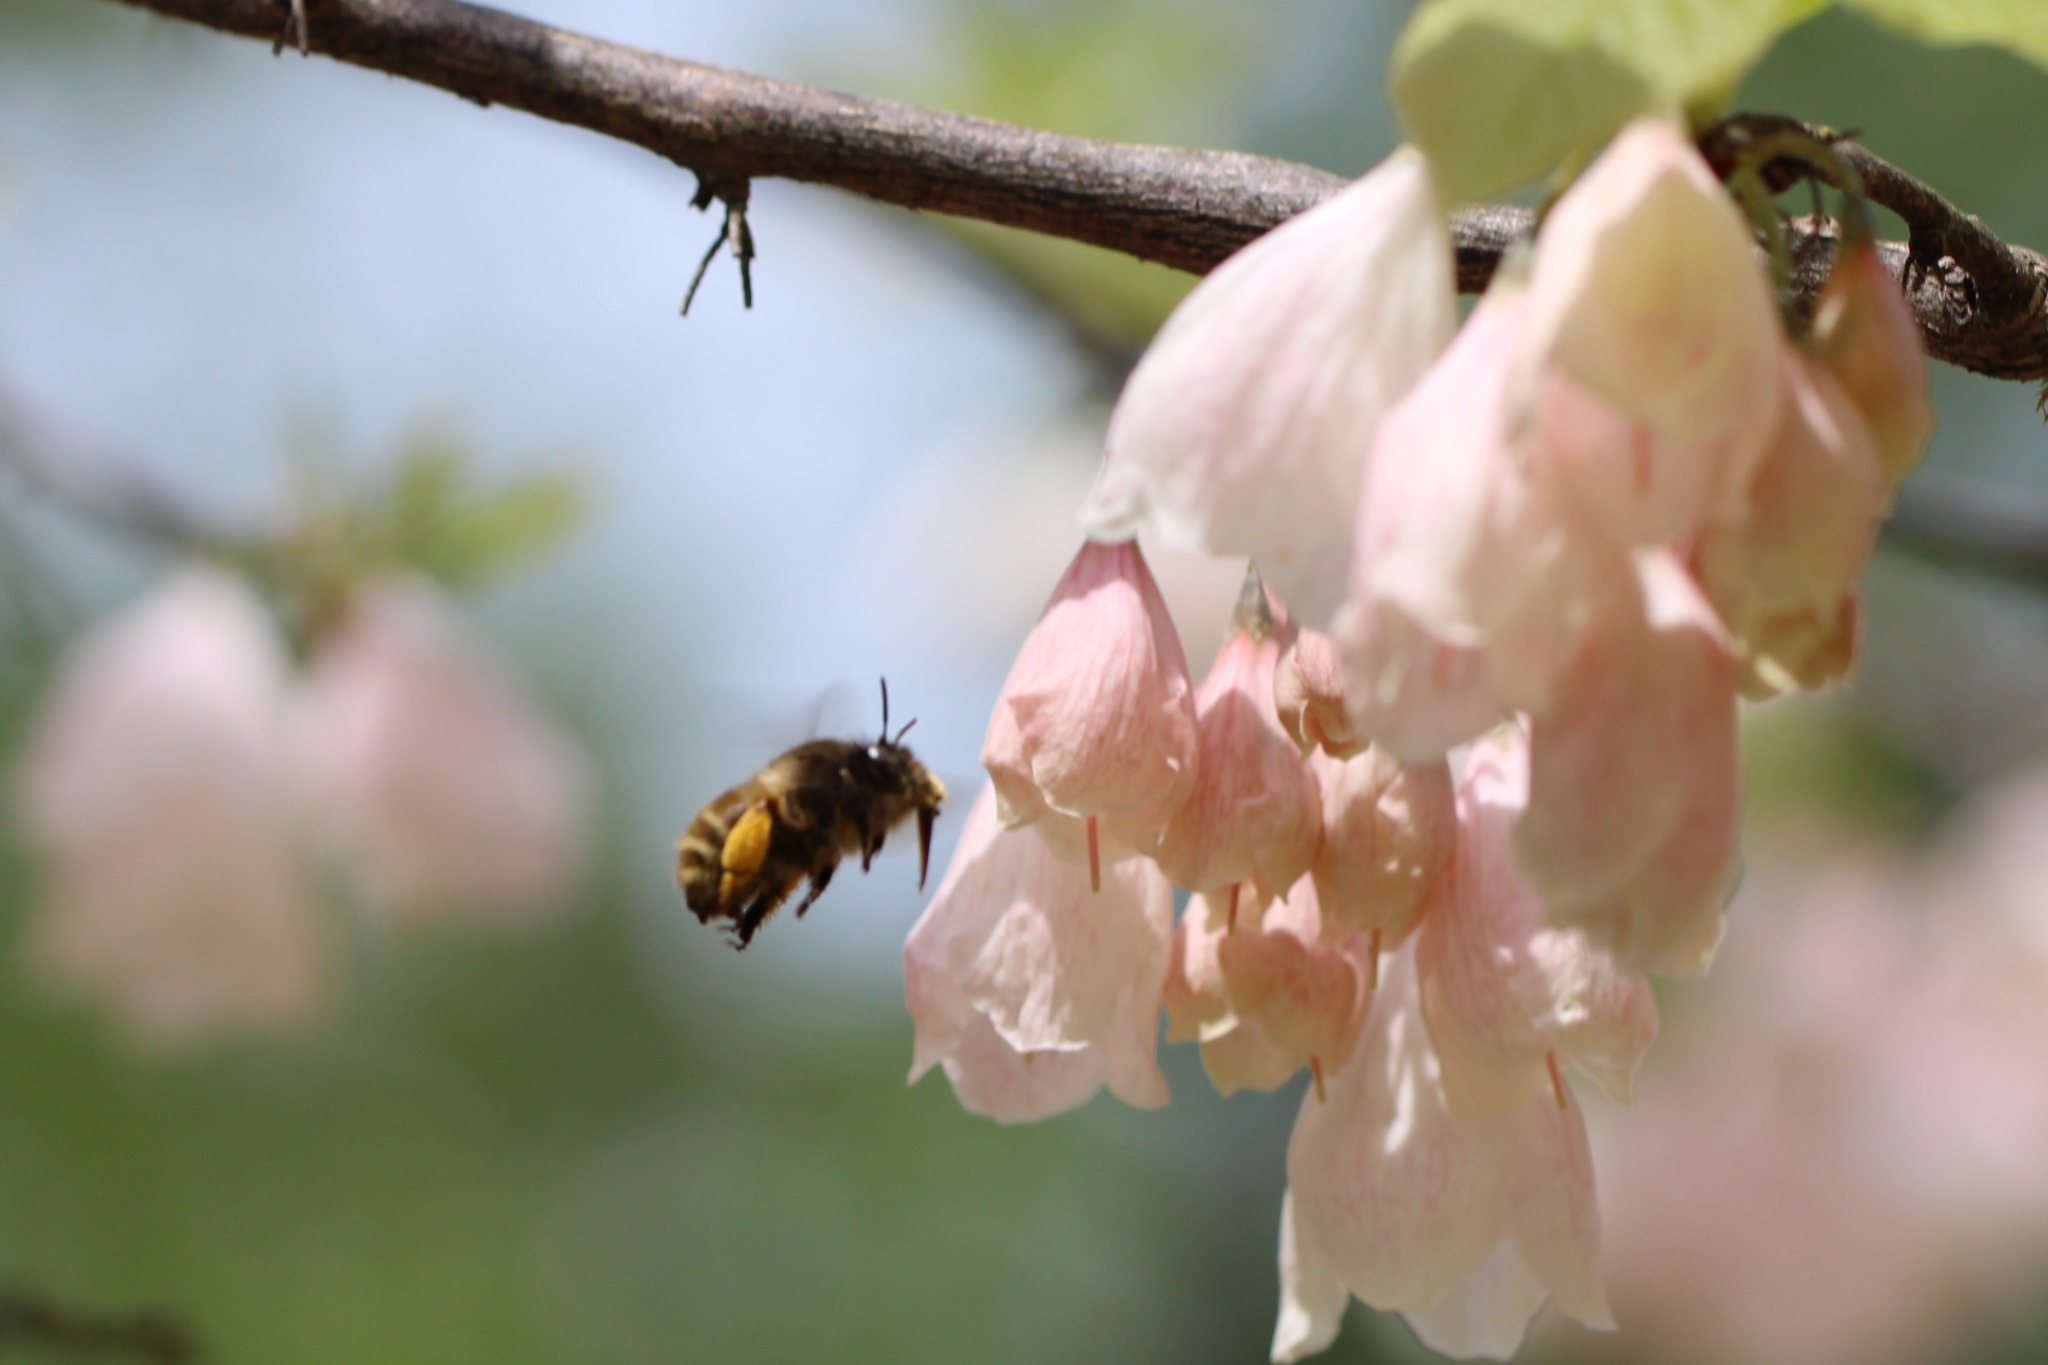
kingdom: Animalia
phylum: Arthropoda
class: Insecta
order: Hymenoptera
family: Apidae
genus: Anthophora
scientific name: Anthophora villosula
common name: Asian shaggy digger
